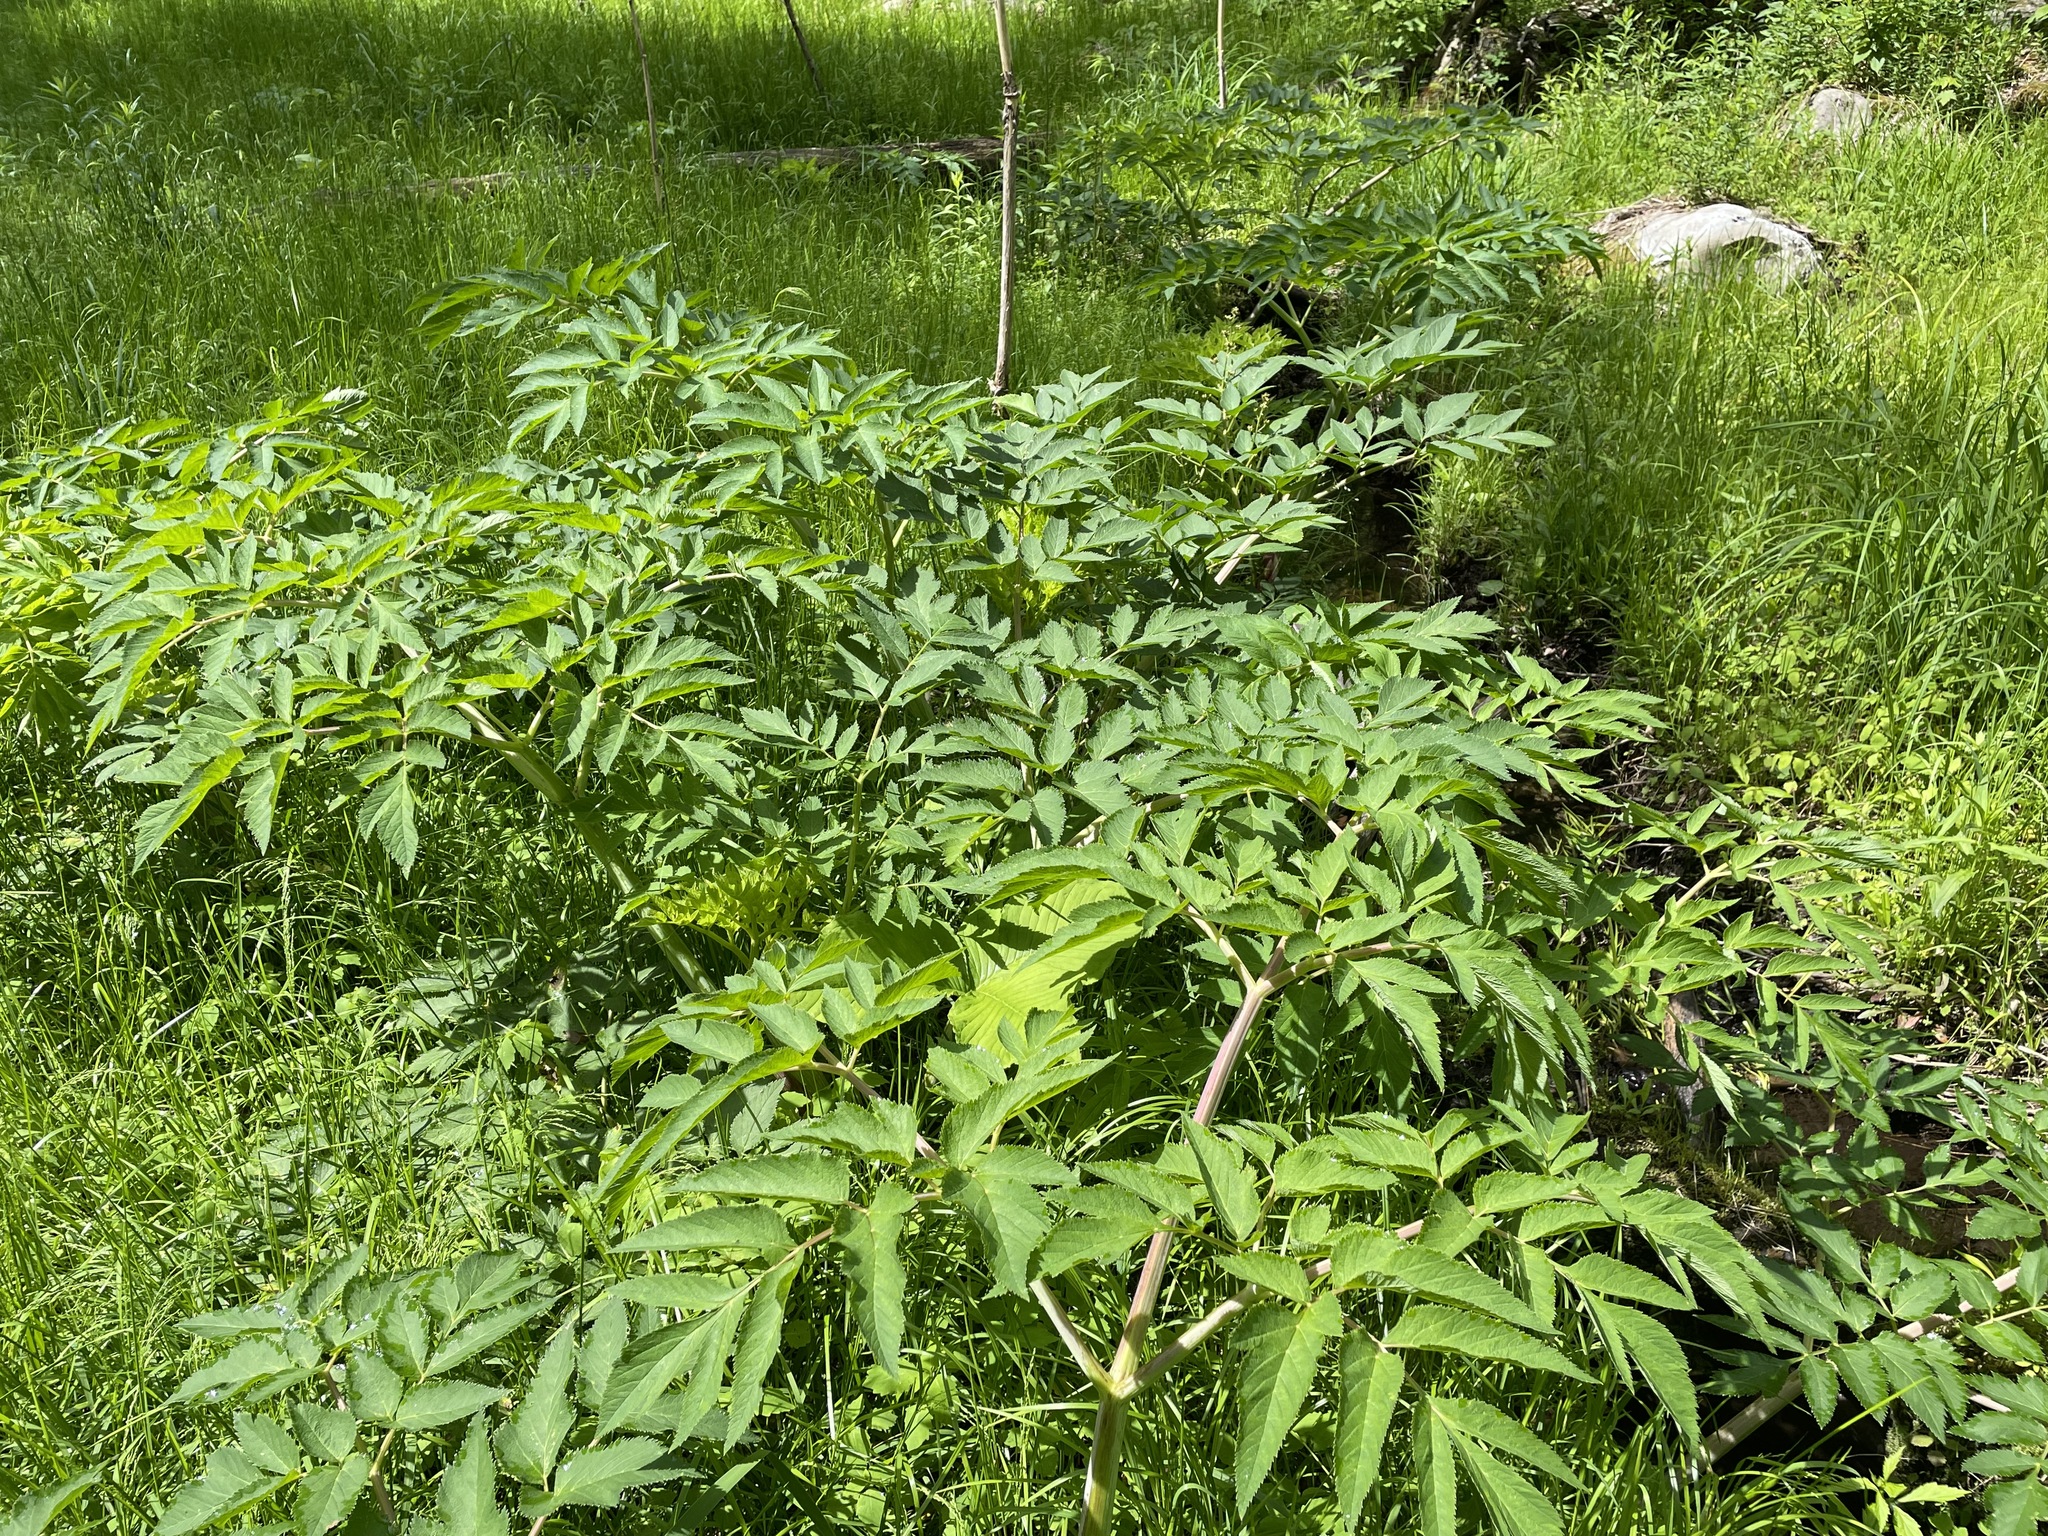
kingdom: Plantae
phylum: Tracheophyta
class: Magnoliopsida
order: Apiales
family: Apiaceae
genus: Angelica
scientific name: Angelica atropurpurea
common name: Great angelica
